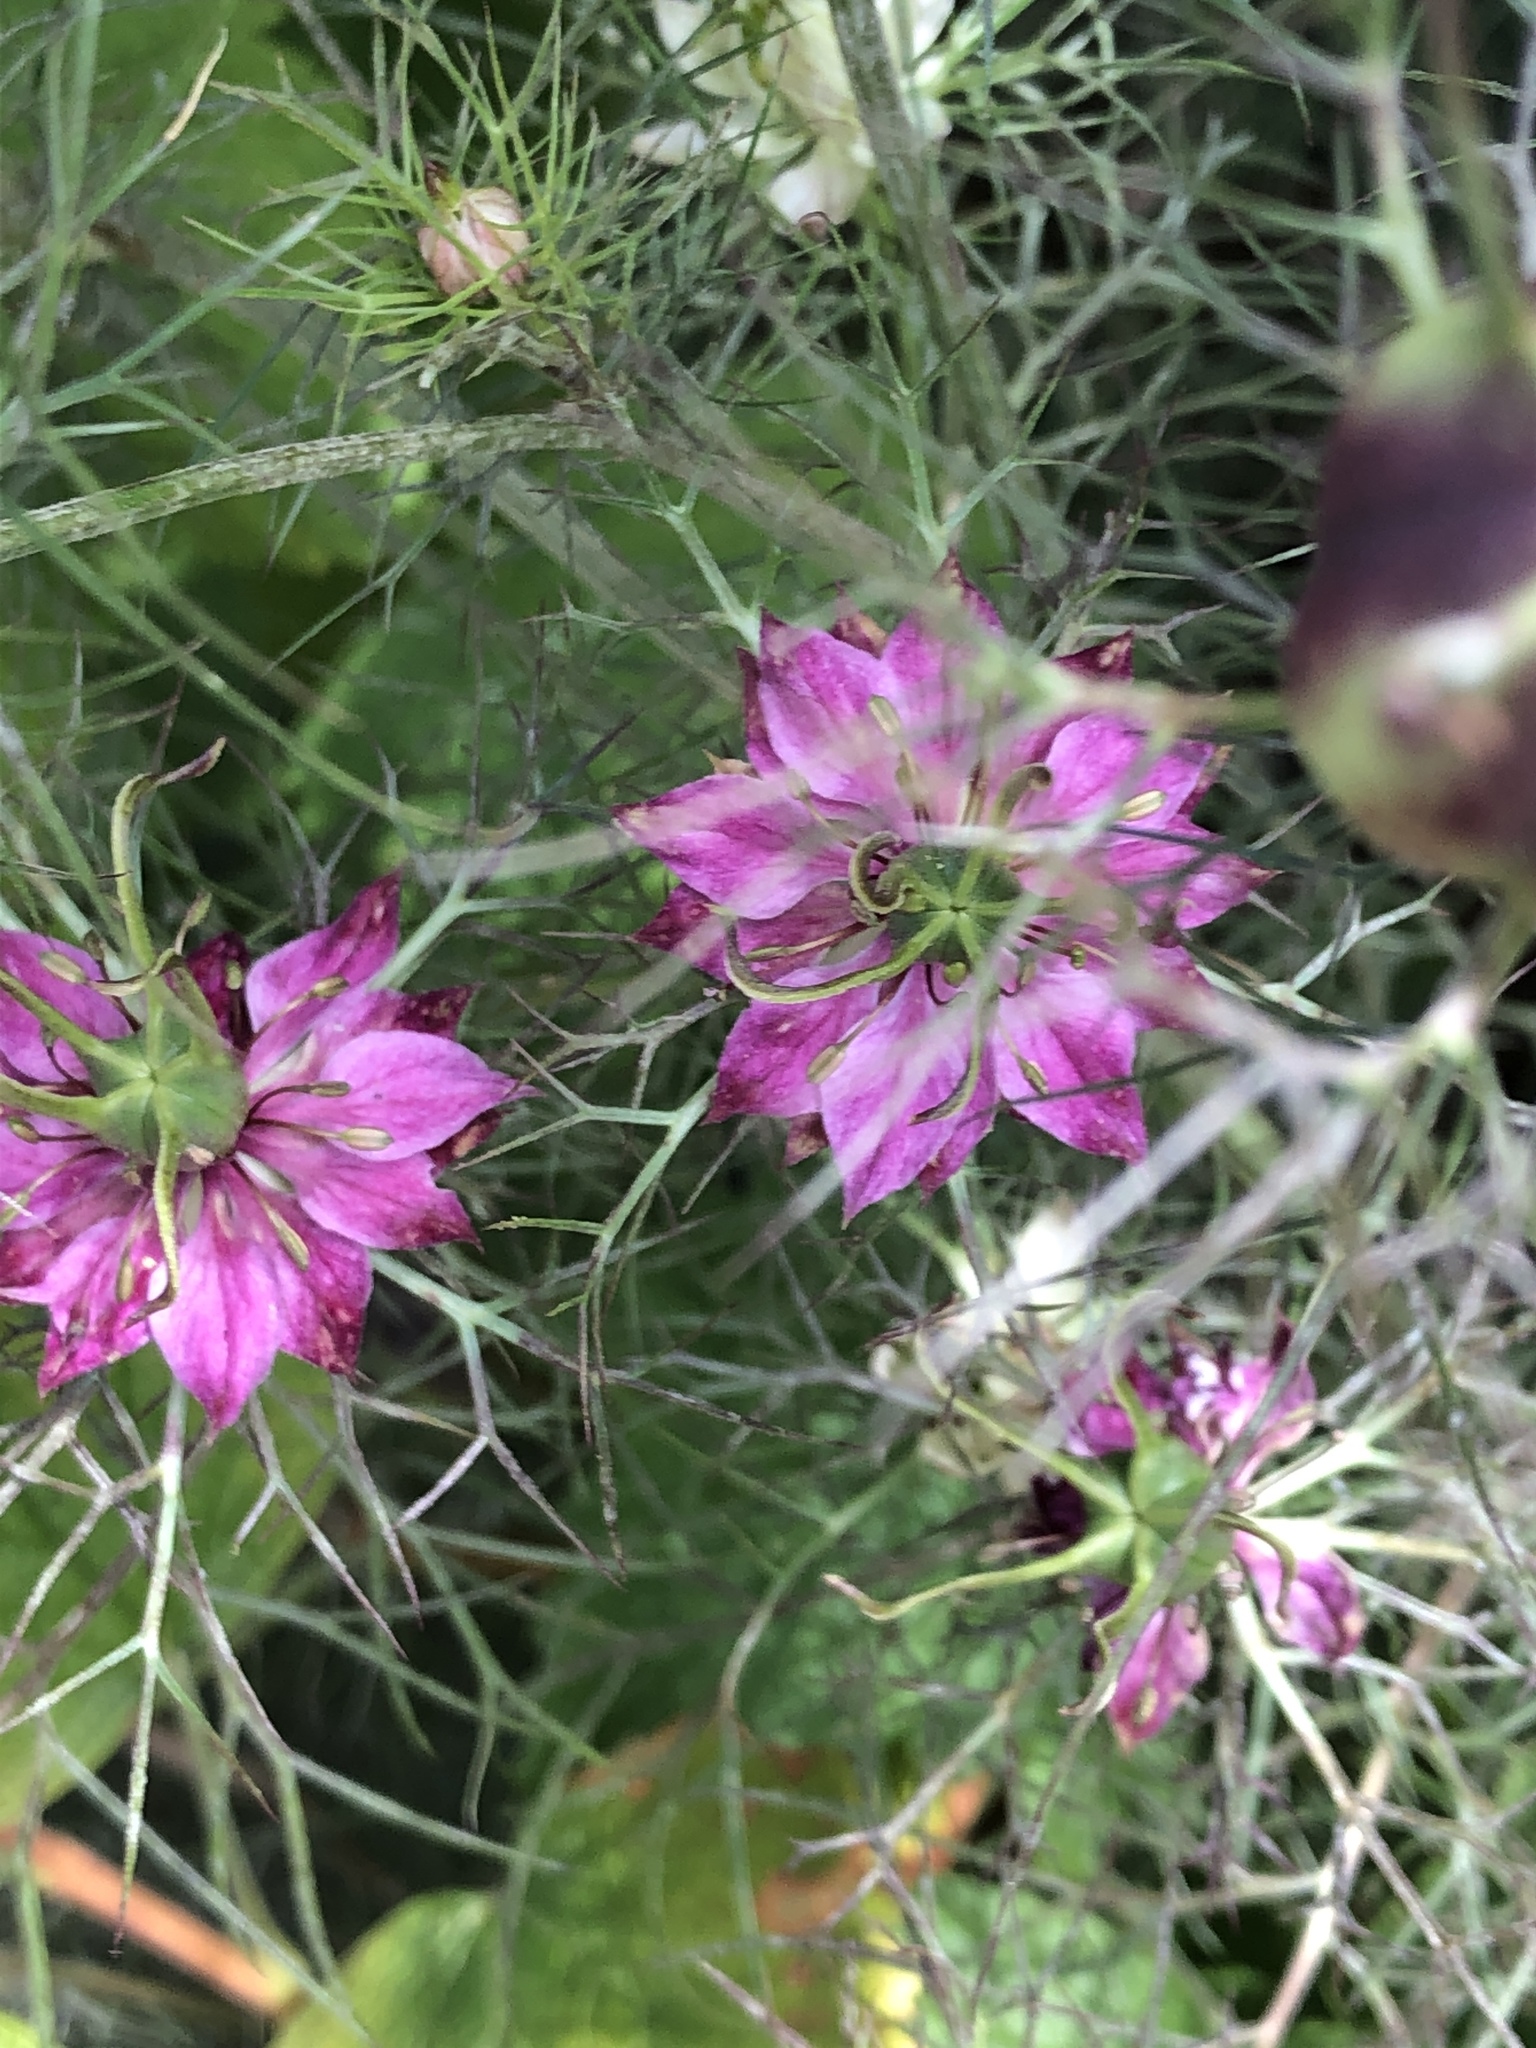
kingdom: Plantae
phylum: Tracheophyta
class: Magnoliopsida
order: Ranunculales
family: Ranunculaceae
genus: Nigella
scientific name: Nigella damascena
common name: Love-in-a-mist
